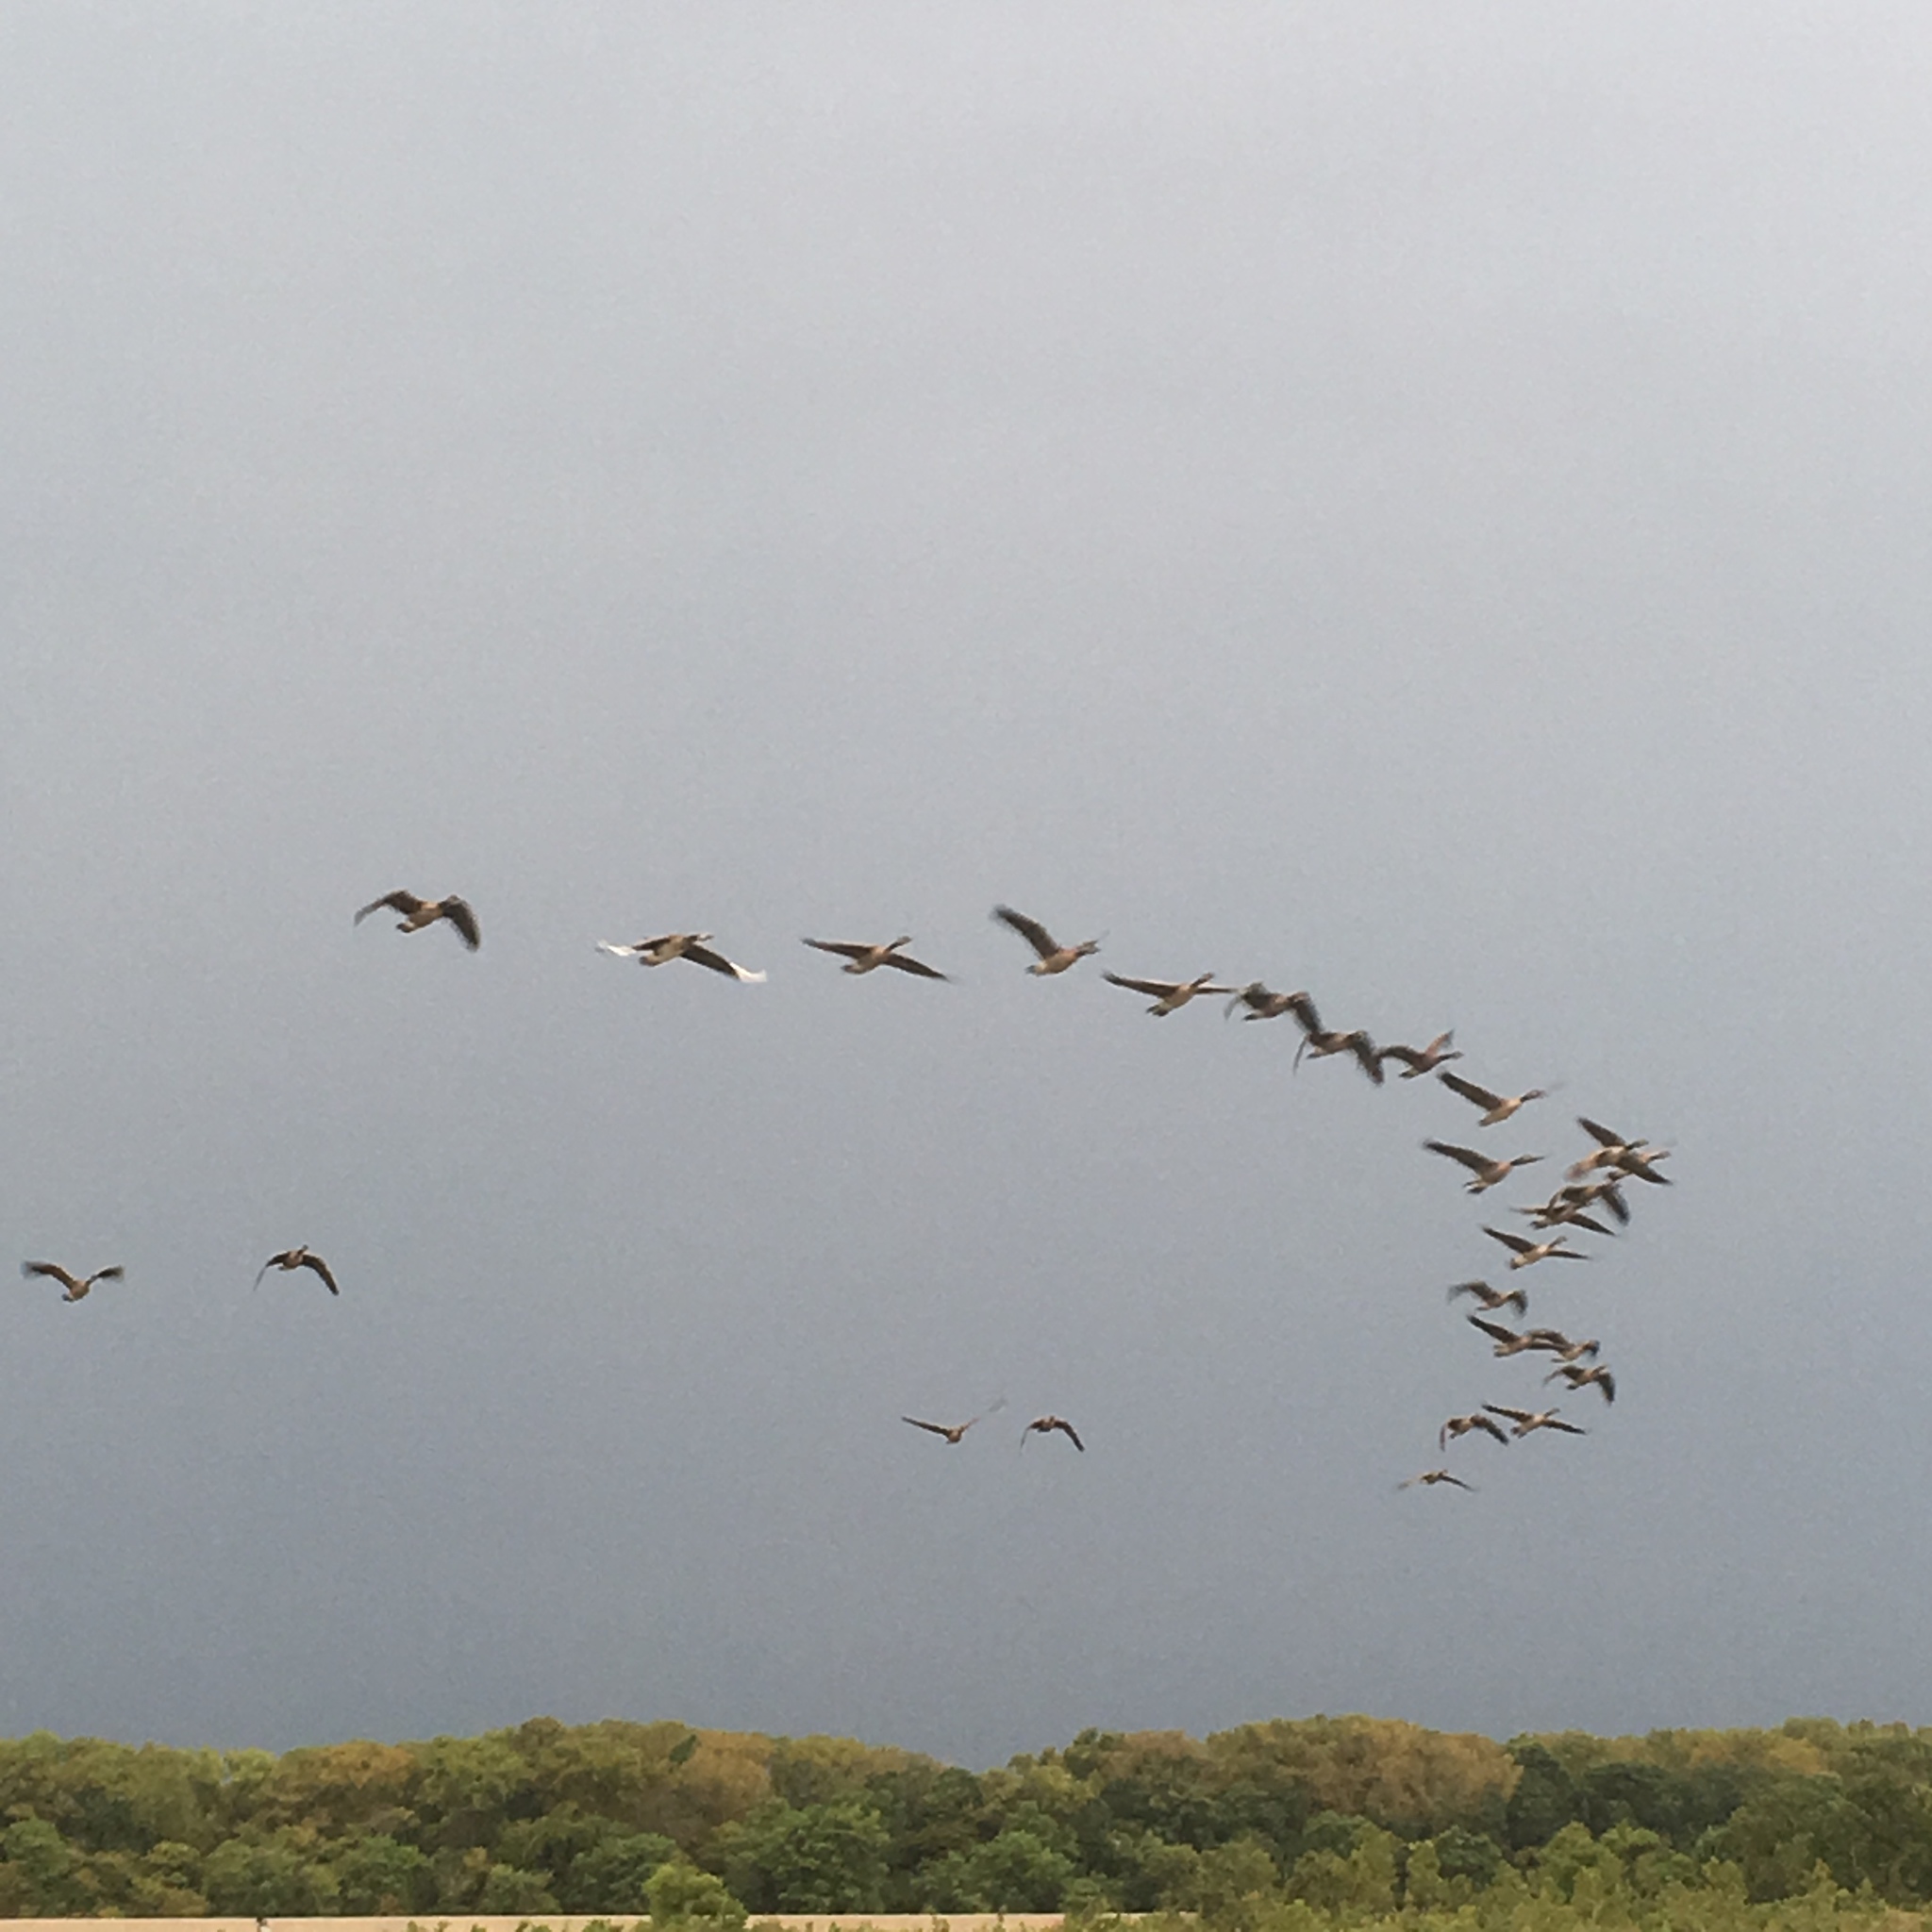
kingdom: Animalia
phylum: Chordata
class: Aves
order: Anseriformes
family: Anatidae
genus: Branta
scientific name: Branta canadensis
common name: Canada goose
